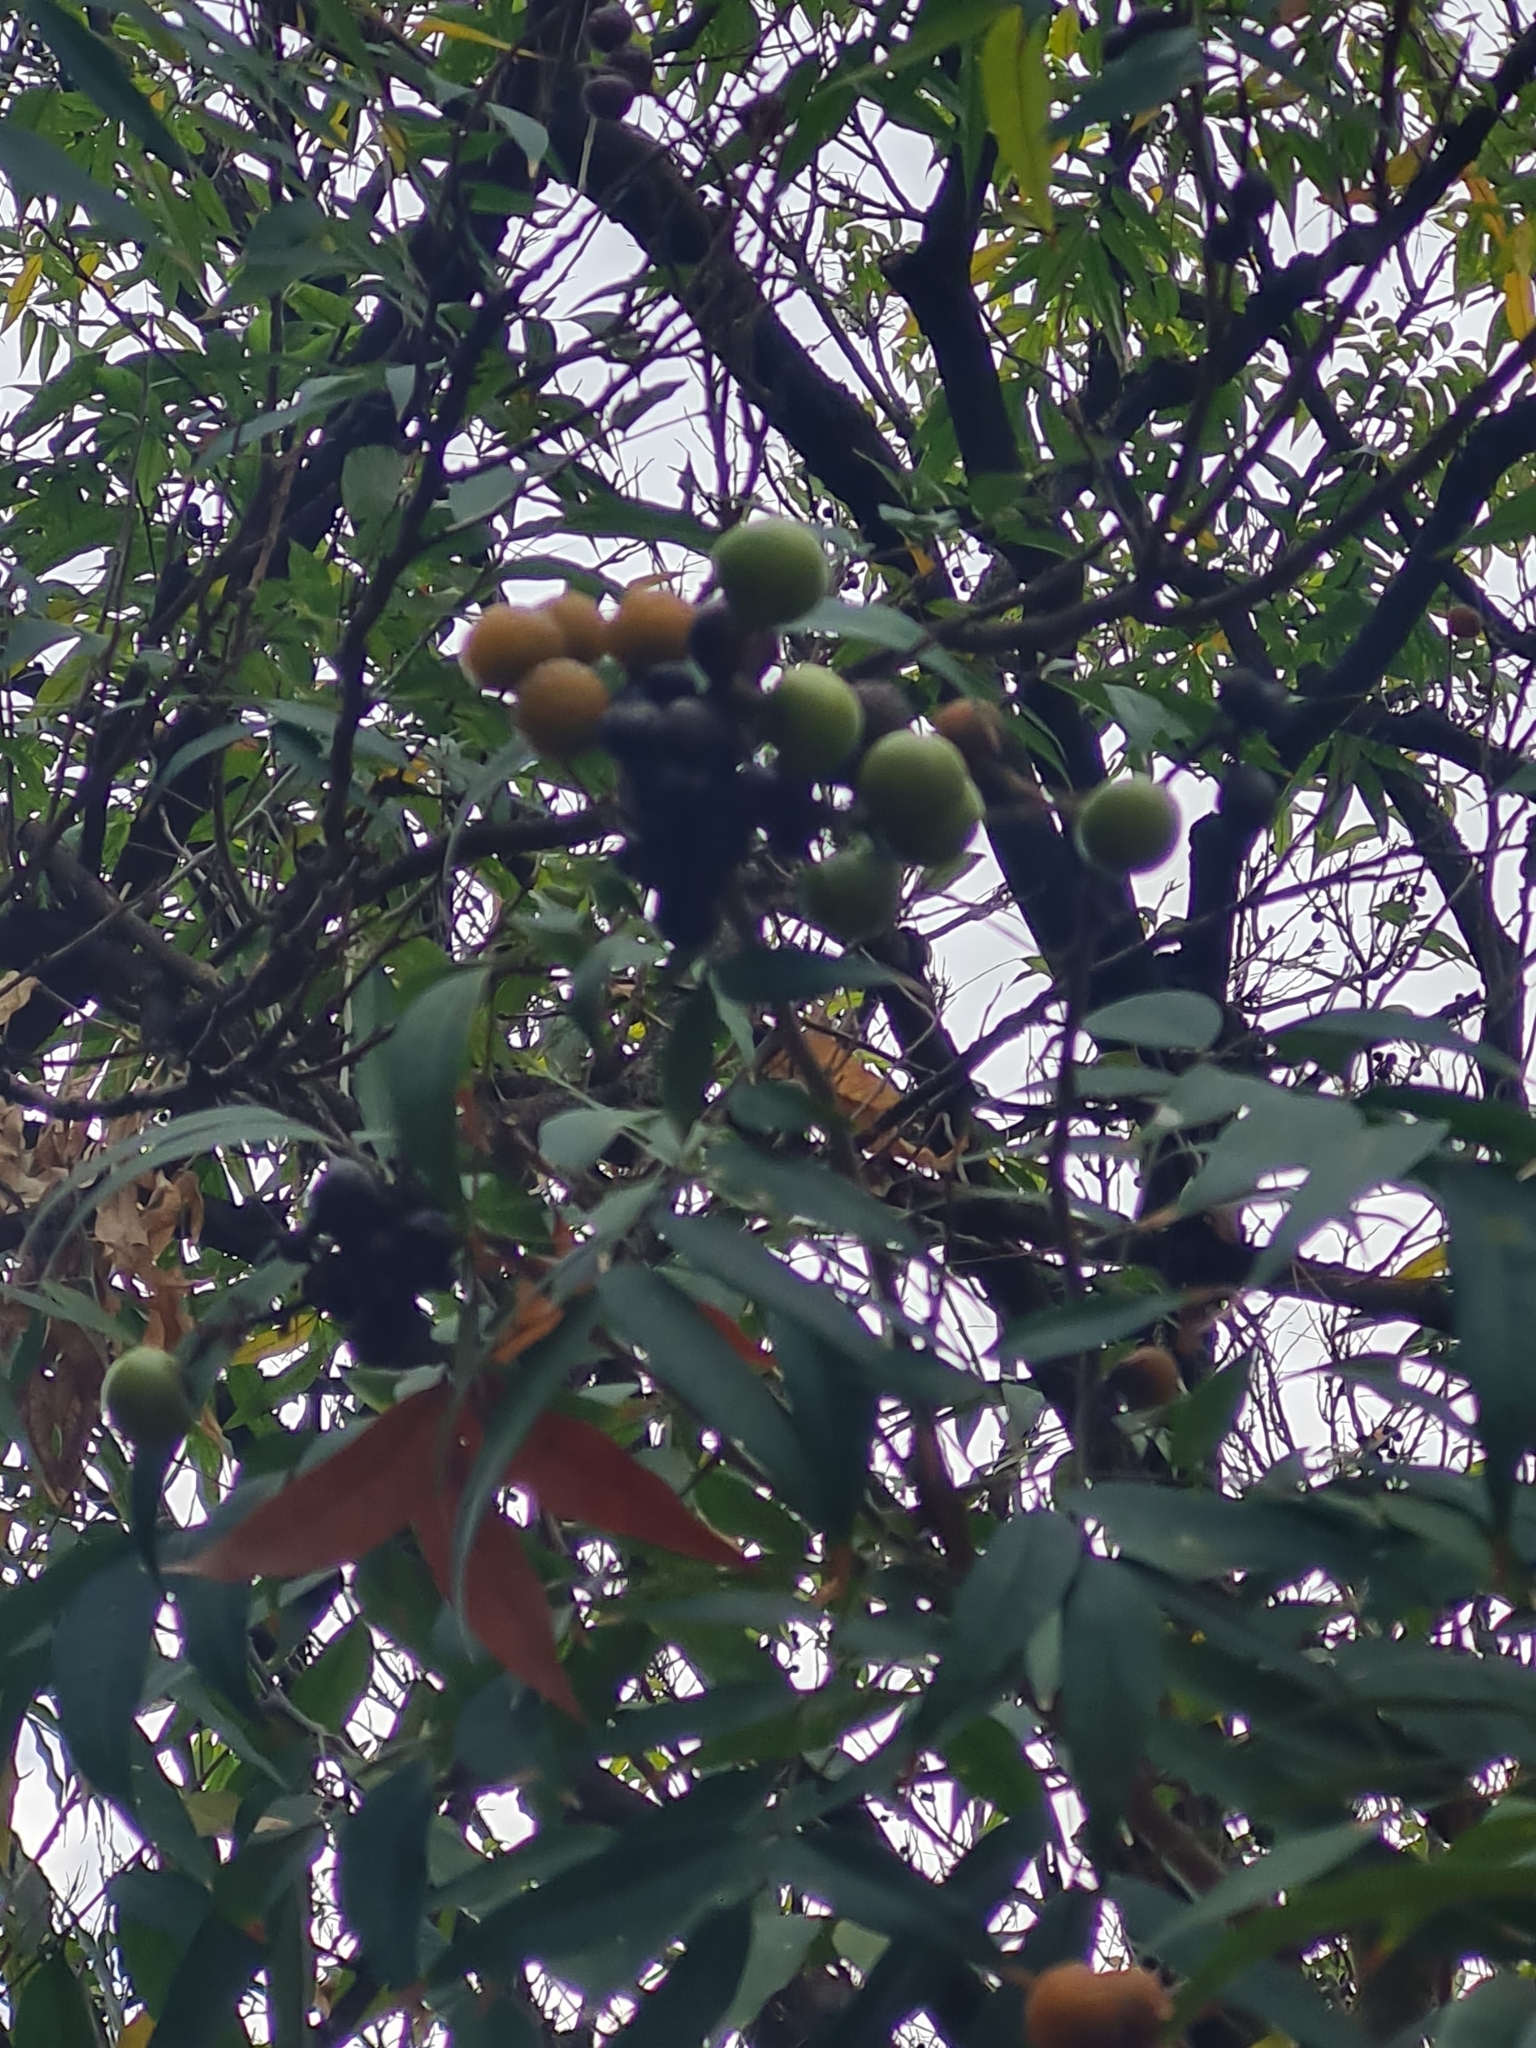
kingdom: Plantae
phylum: Tracheophyta
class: Magnoliopsida
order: Sapindales
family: Sapindaceae
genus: Sapindus
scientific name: Sapindus saponaria
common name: Wingleaf soapberry
